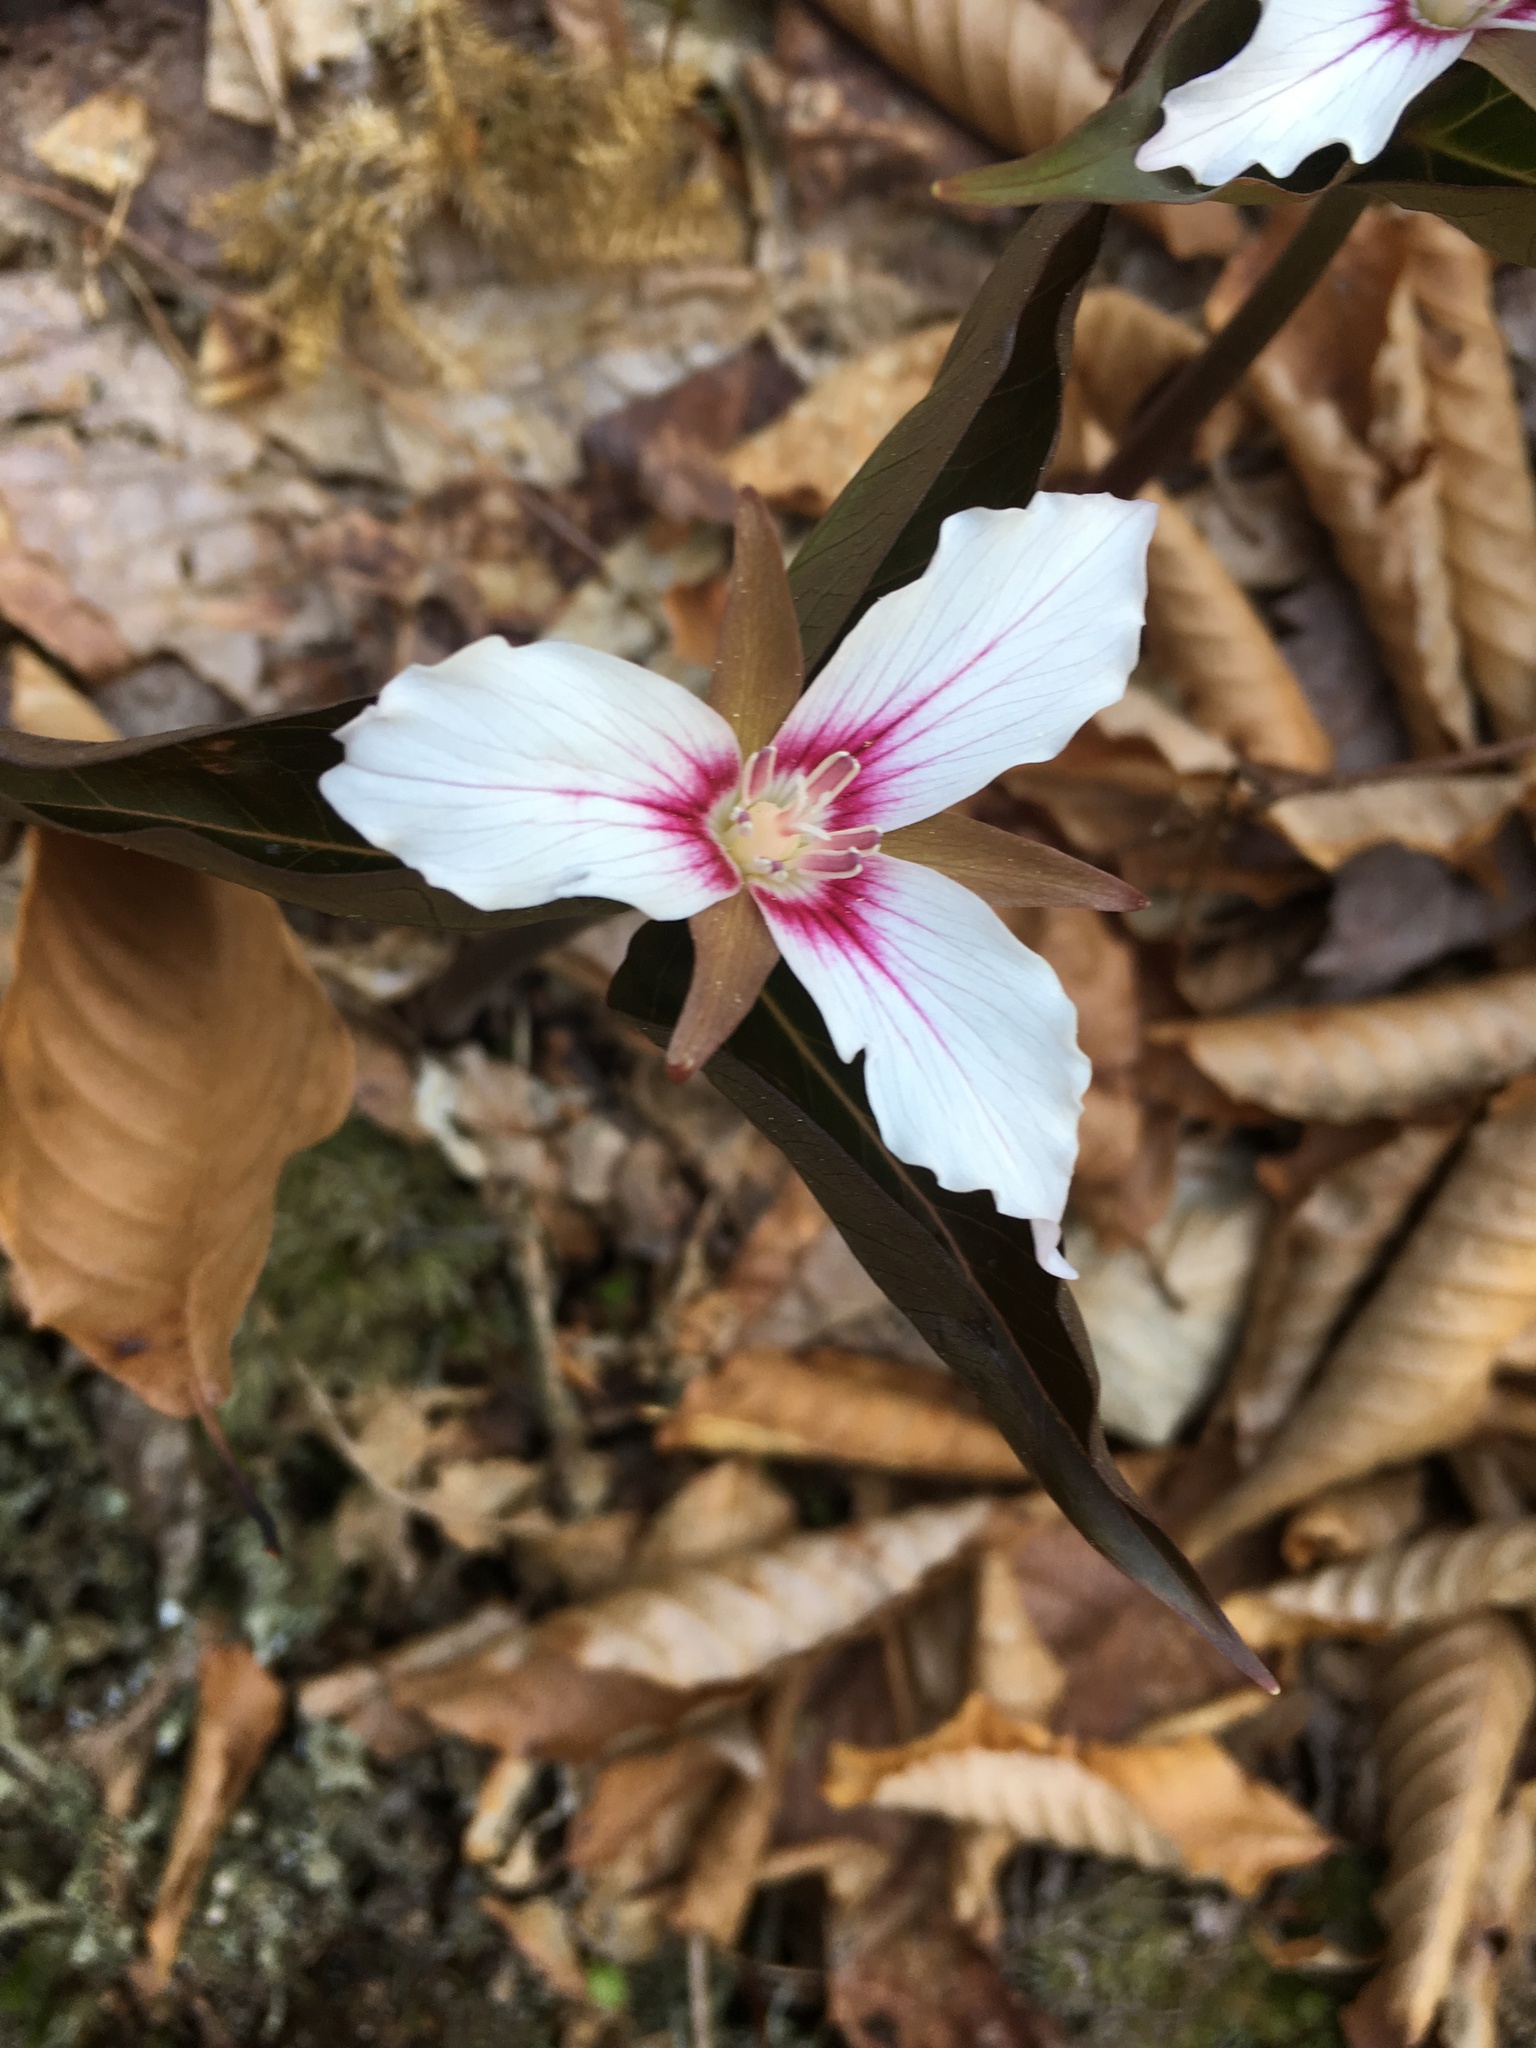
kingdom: Plantae
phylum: Tracheophyta
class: Liliopsida
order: Liliales
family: Melanthiaceae
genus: Trillium
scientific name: Trillium undulatum
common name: Paint trillium
